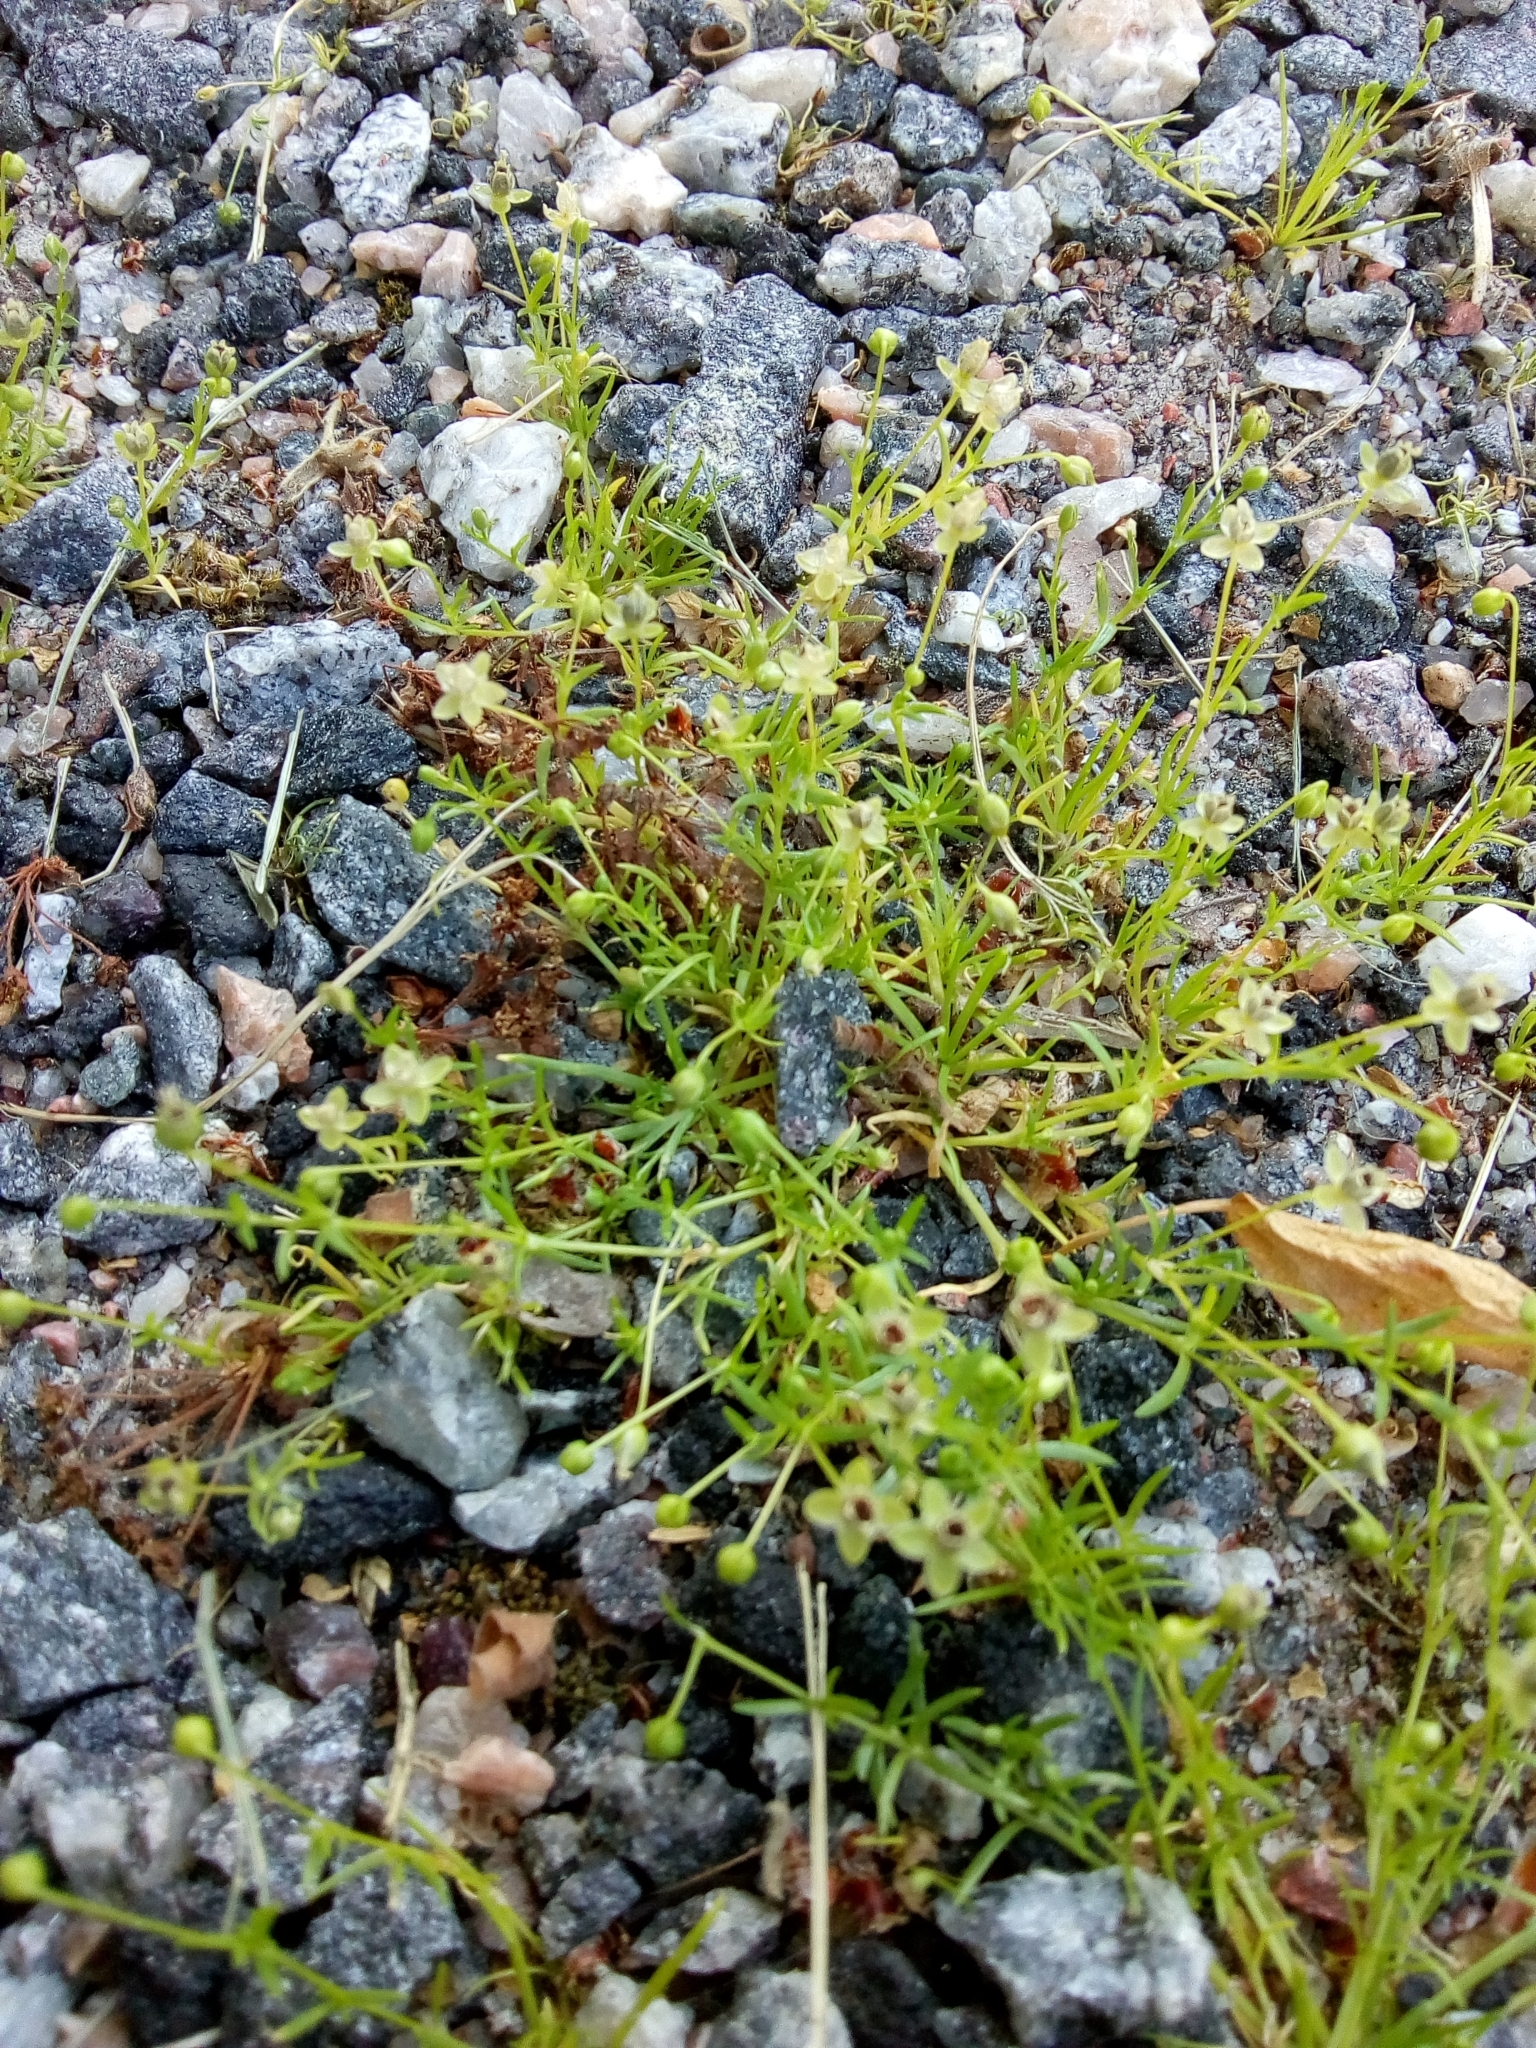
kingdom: Plantae
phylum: Tracheophyta
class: Magnoliopsida
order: Caryophyllales
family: Caryophyllaceae
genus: Sagina
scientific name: Sagina procumbens
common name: Procumbent pearlwort
